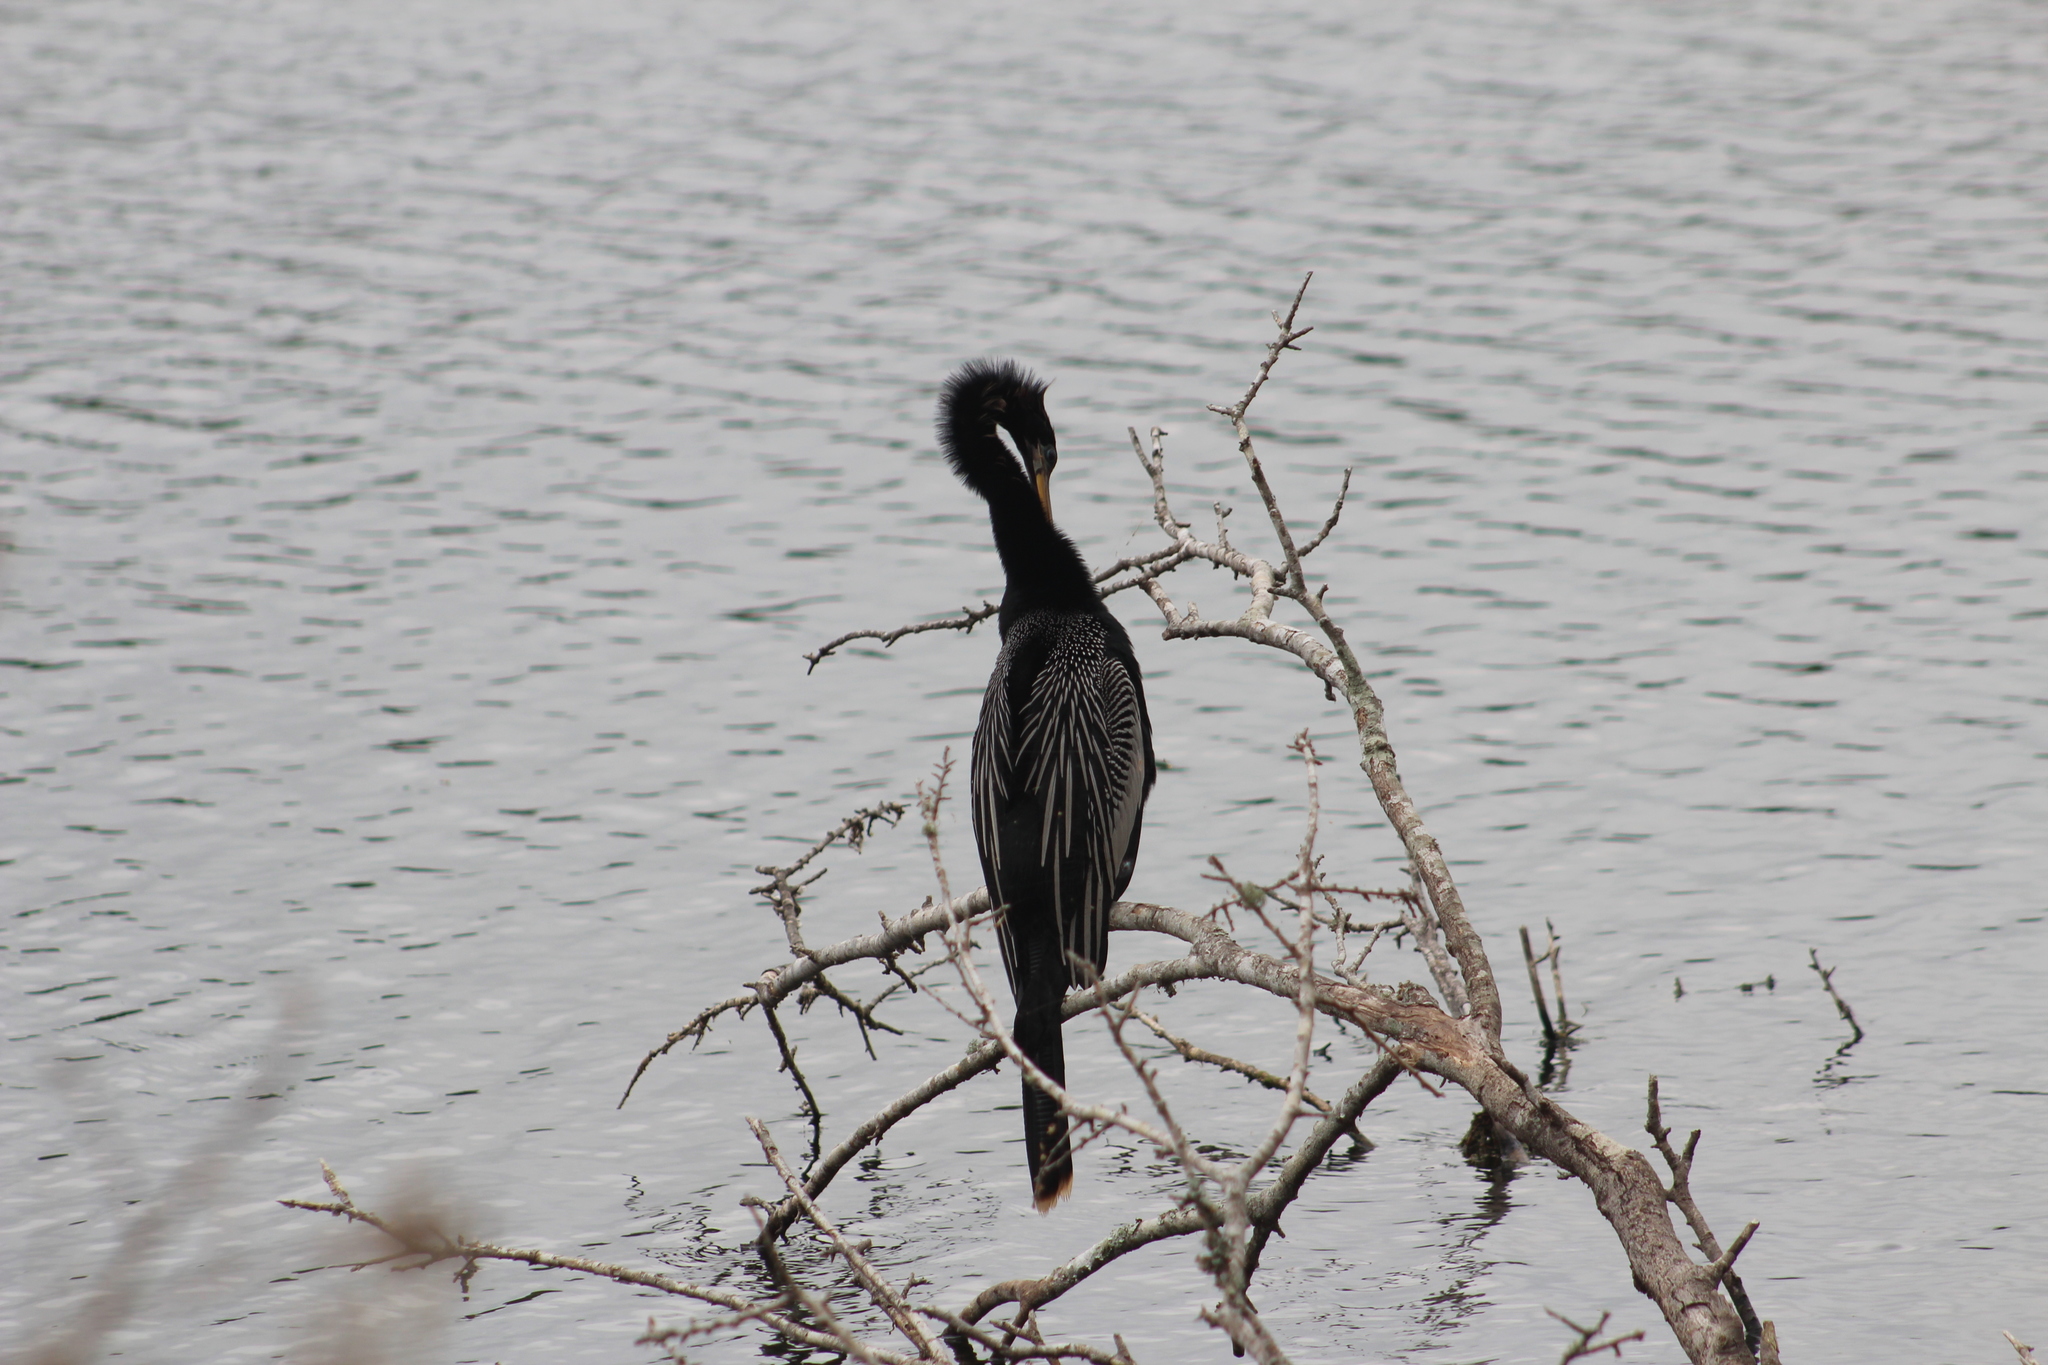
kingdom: Animalia
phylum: Chordata
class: Aves
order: Suliformes
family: Anhingidae
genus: Anhinga
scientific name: Anhinga anhinga
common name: Anhinga
